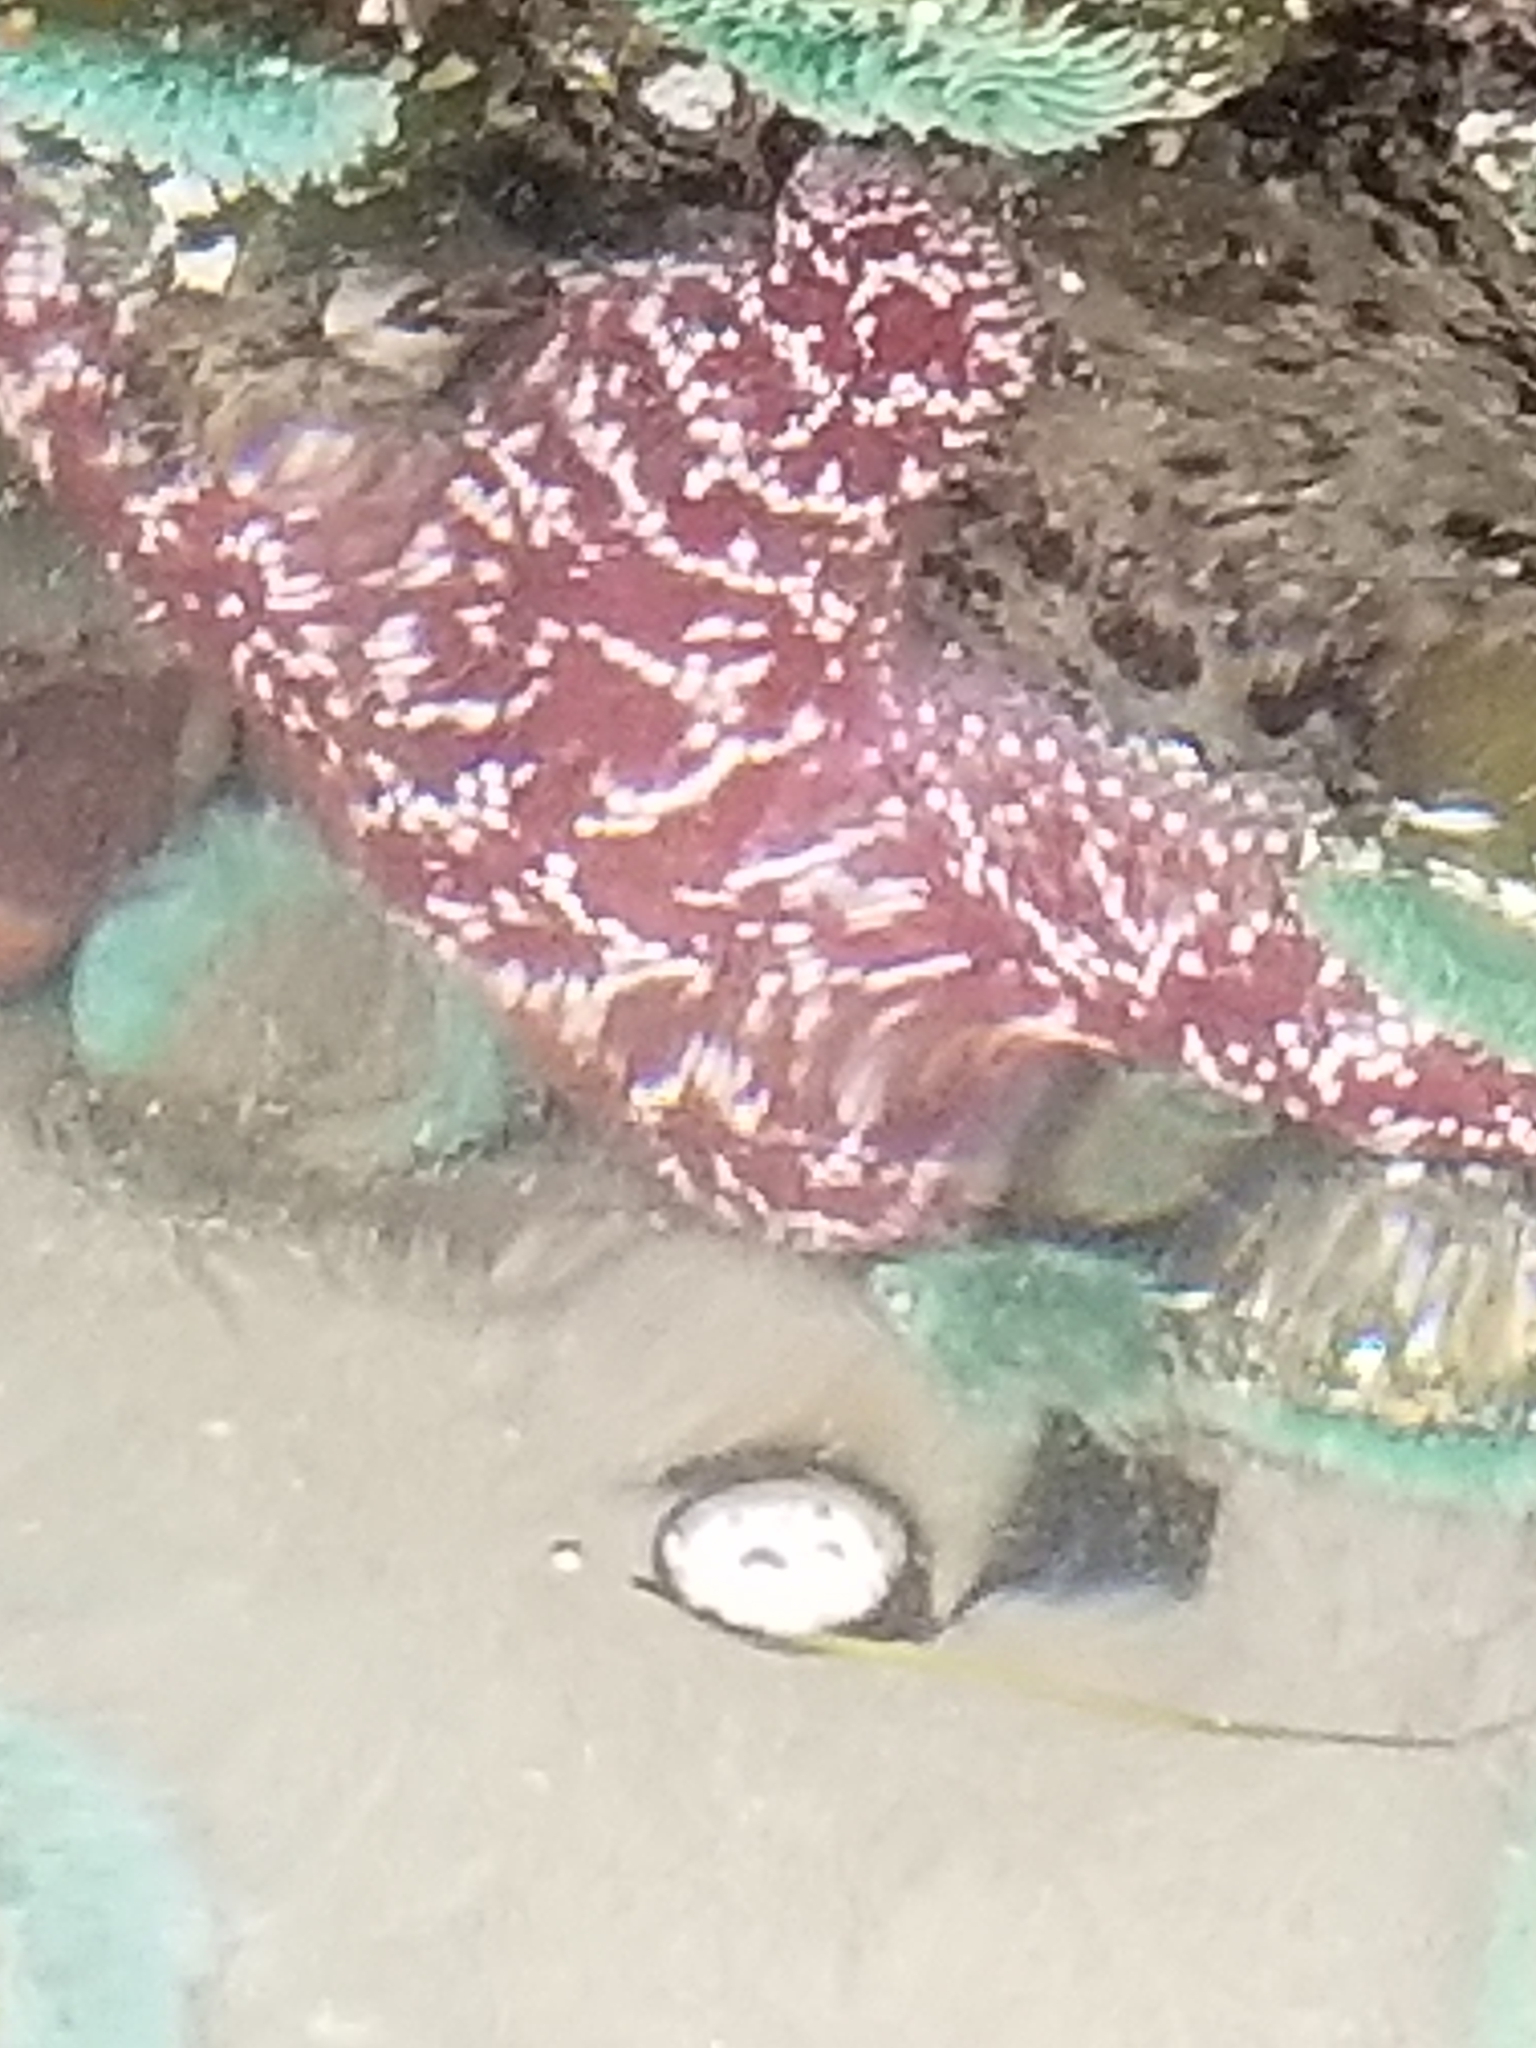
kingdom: Animalia
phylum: Echinodermata
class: Asteroidea
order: Forcipulatida
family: Asteriidae
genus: Pisaster
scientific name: Pisaster ochraceus
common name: Ochre stars
